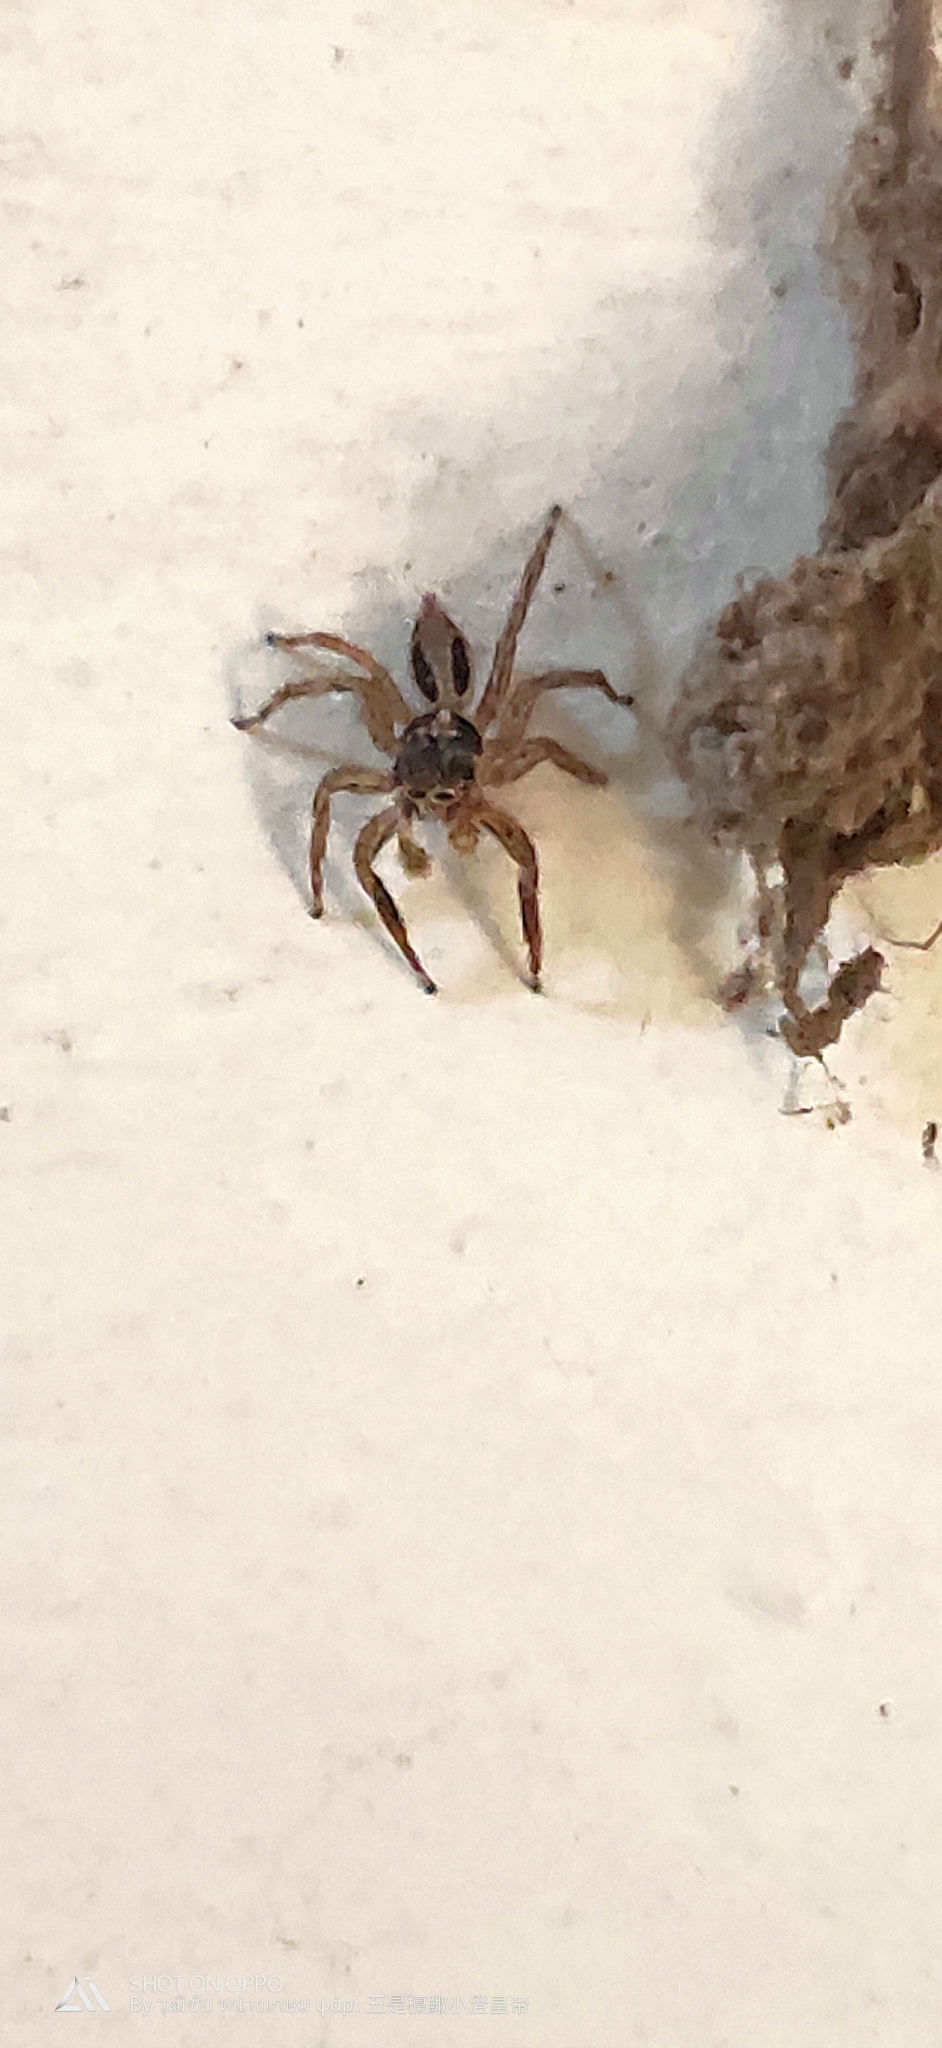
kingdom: Animalia
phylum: Arthropoda
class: Arachnida
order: Araneae
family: Salticidae
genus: Plexippus
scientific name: Plexippus petersi
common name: Jumping spider
